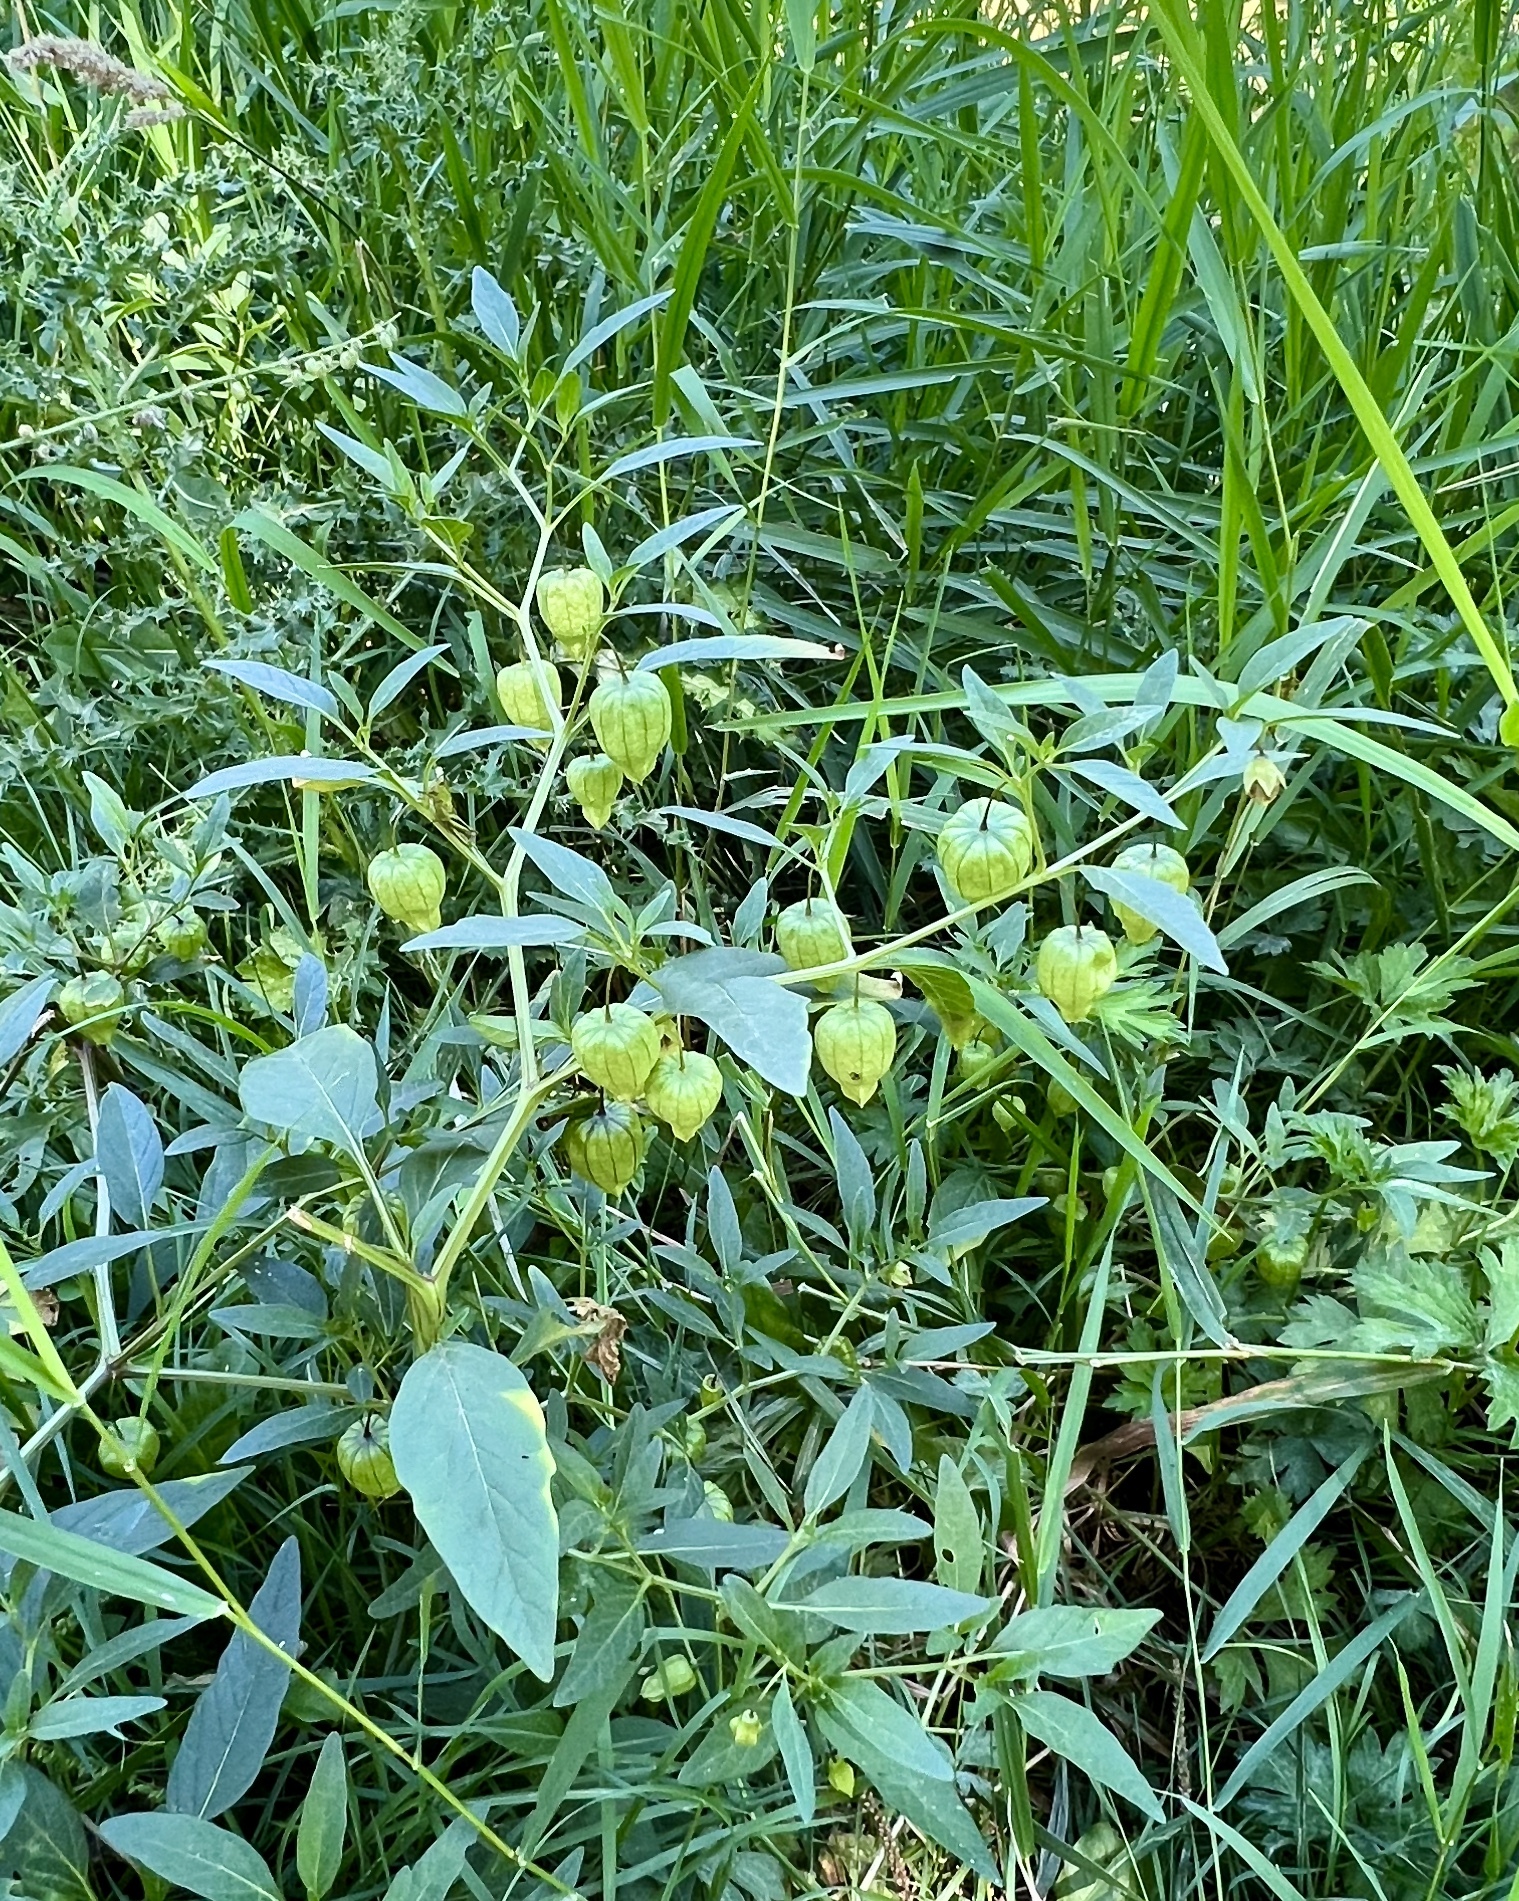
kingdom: Plantae
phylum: Tracheophyta
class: Magnoliopsida
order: Solanales
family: Solanaceae
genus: Physalis
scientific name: Physalis longifolia
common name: Common ground-cherry
